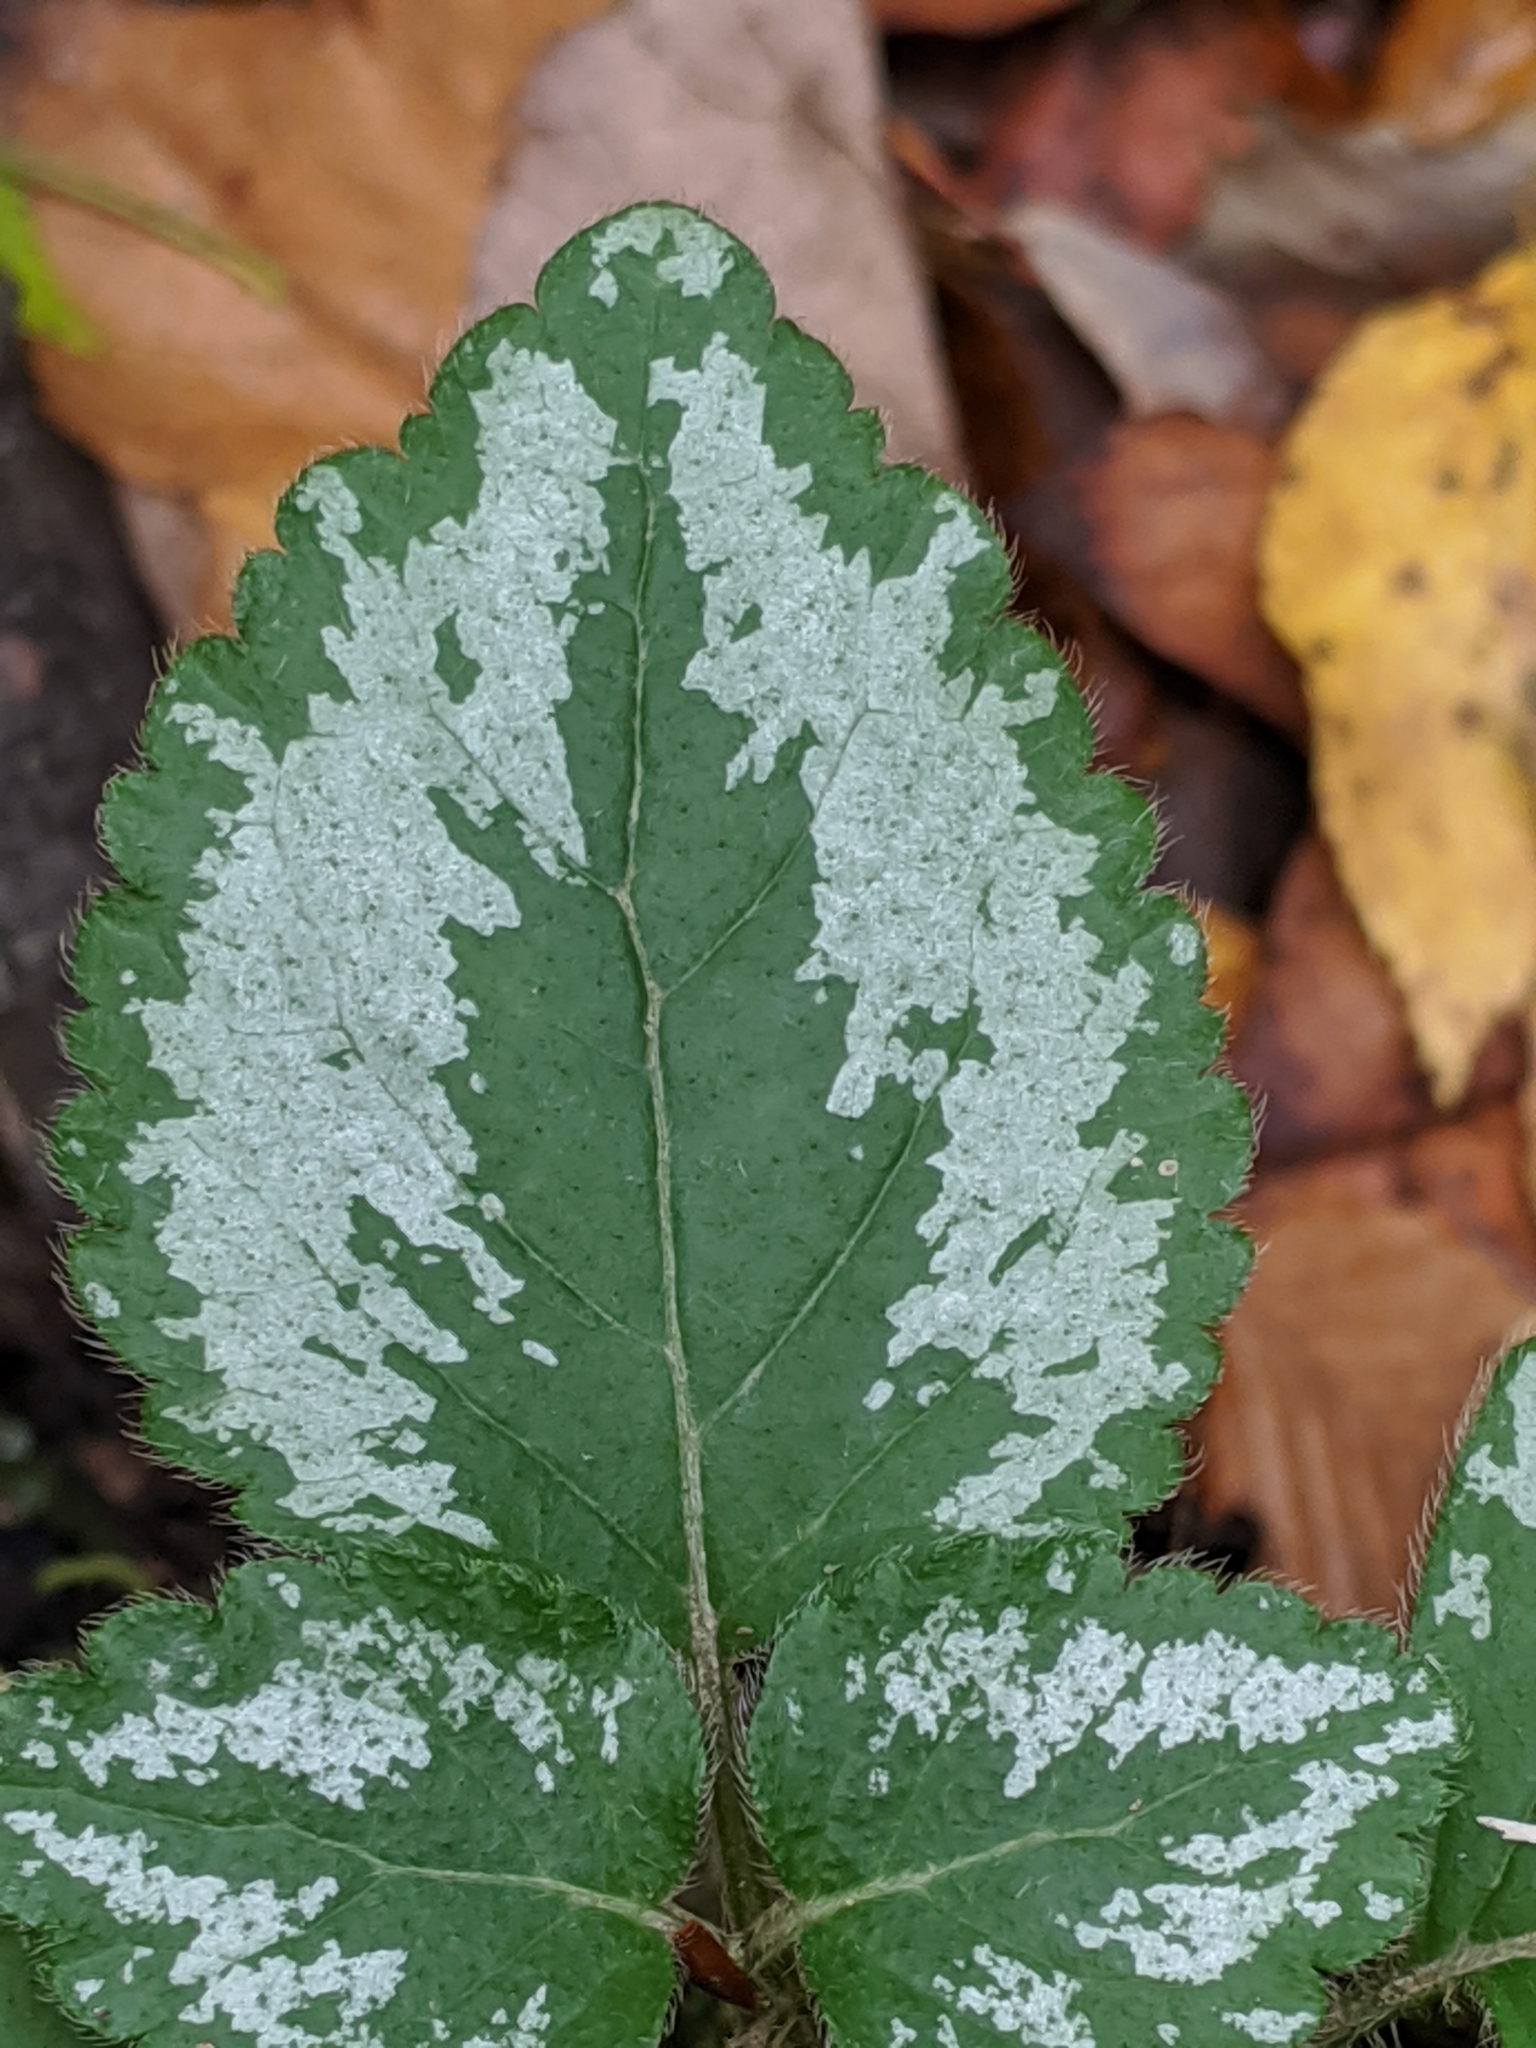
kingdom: Plantae
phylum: Tracheophyta
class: Magnoliopsida
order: Lamiales
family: Lamiaceae
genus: Lamium
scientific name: Lamium galeobdolon
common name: Yellow archangel
